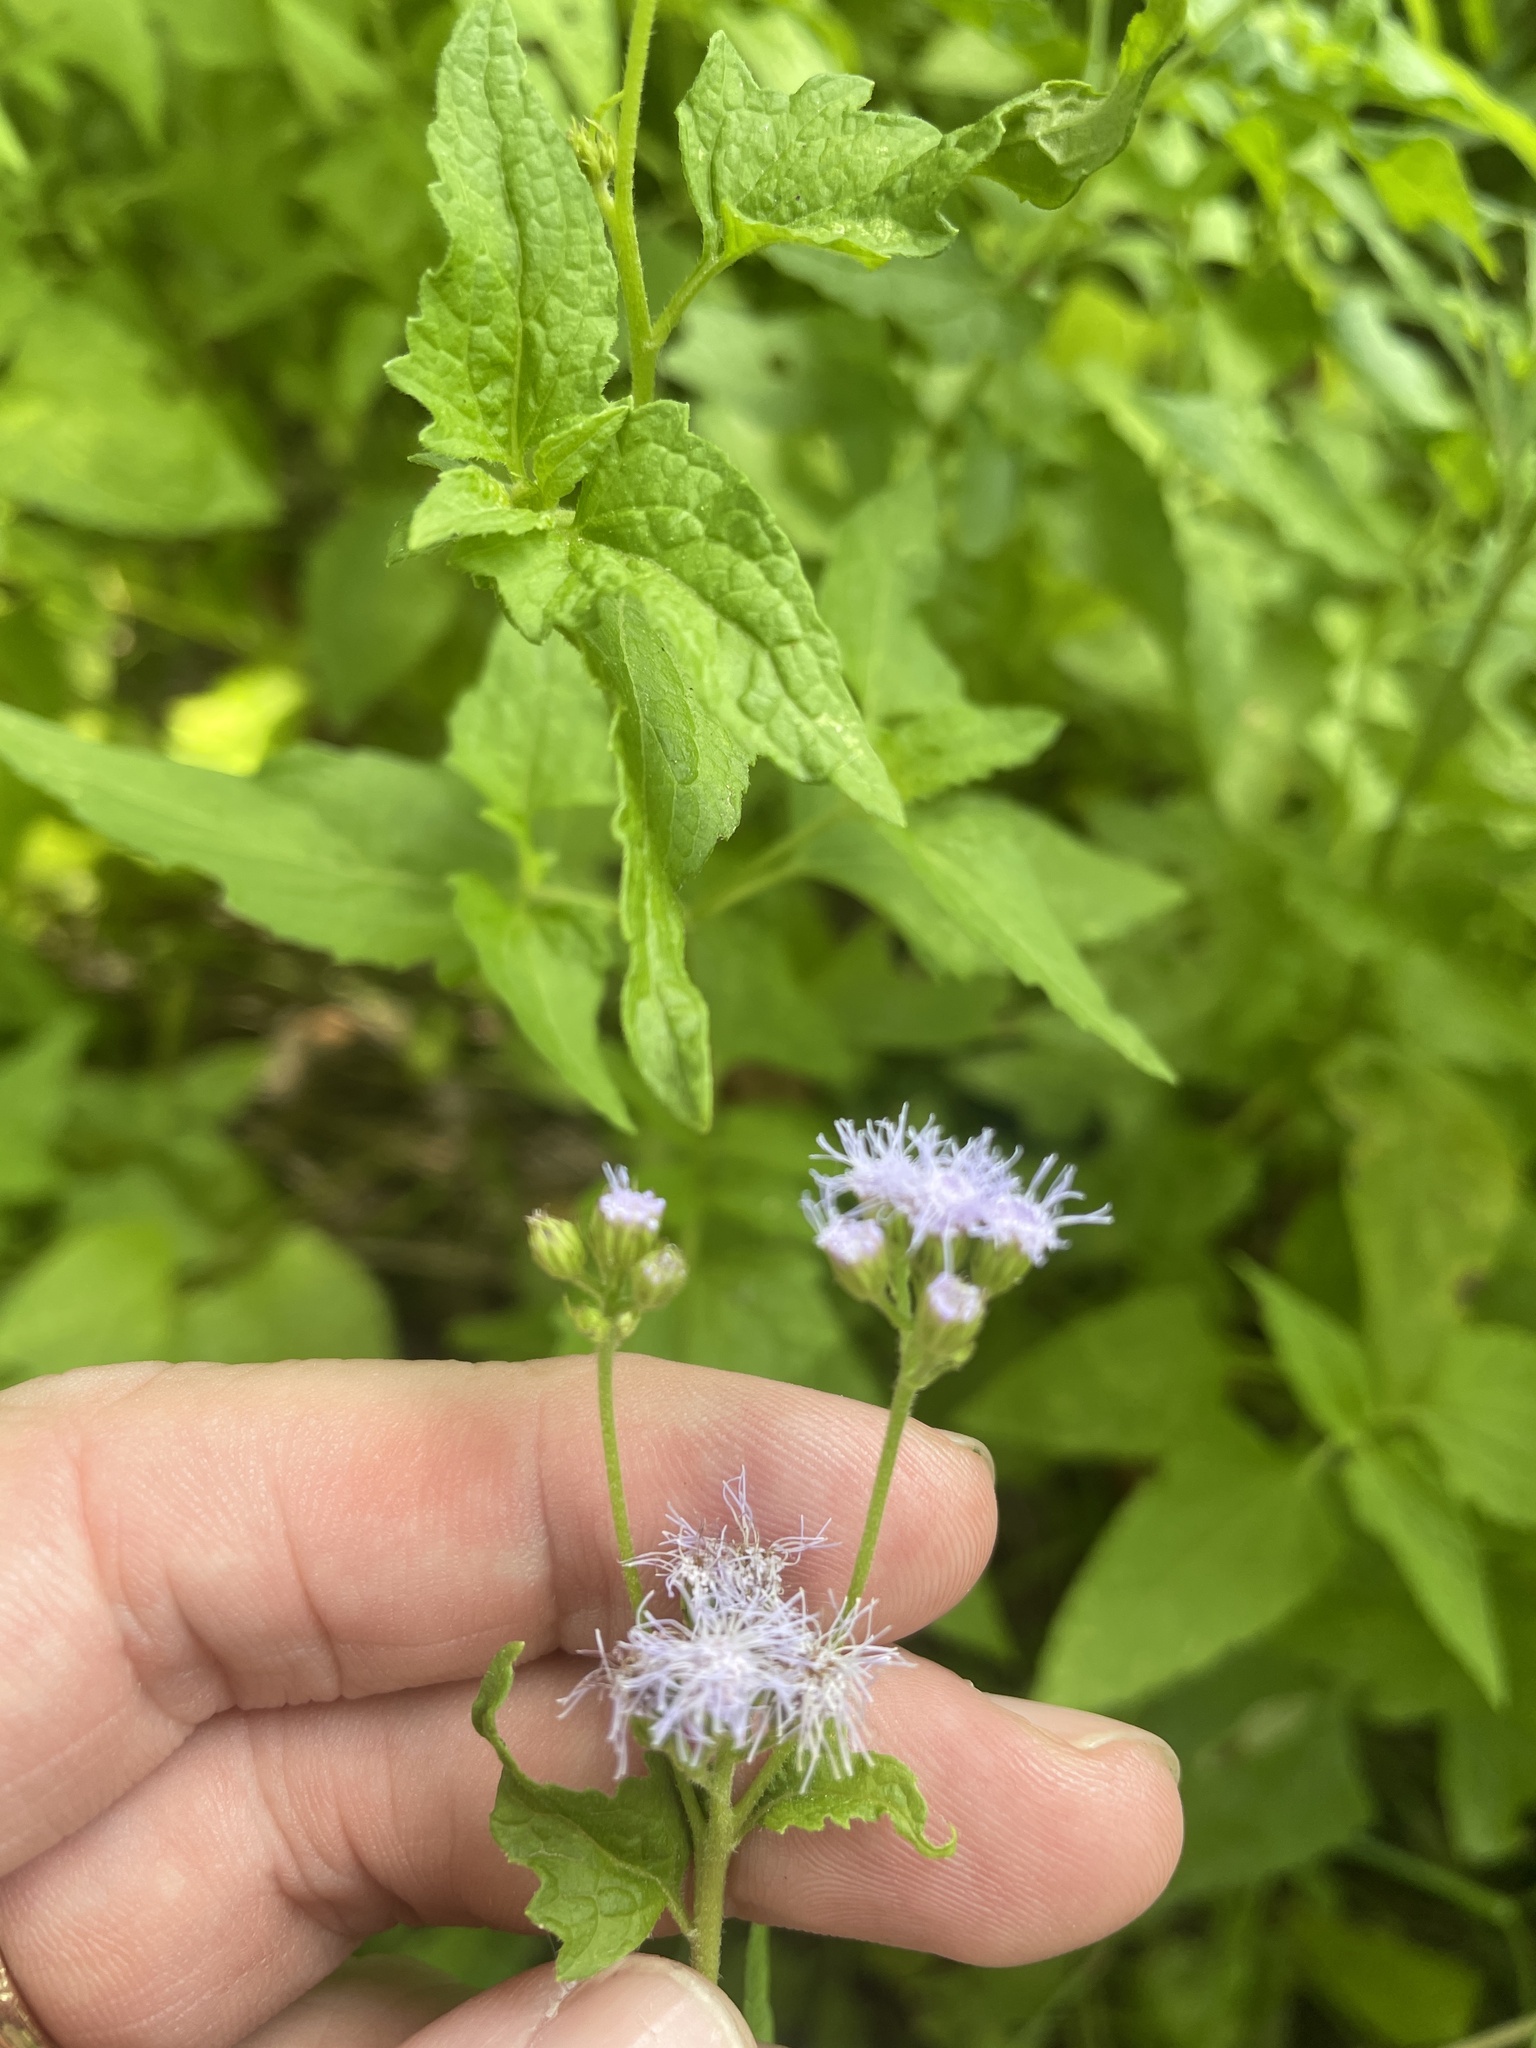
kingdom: Plantae
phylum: Tracheophyta
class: Magnoliopsida
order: Asterales
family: Asteraceae
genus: Conoclinium
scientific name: Conoclinium coelestinum
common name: Blue mistflower
